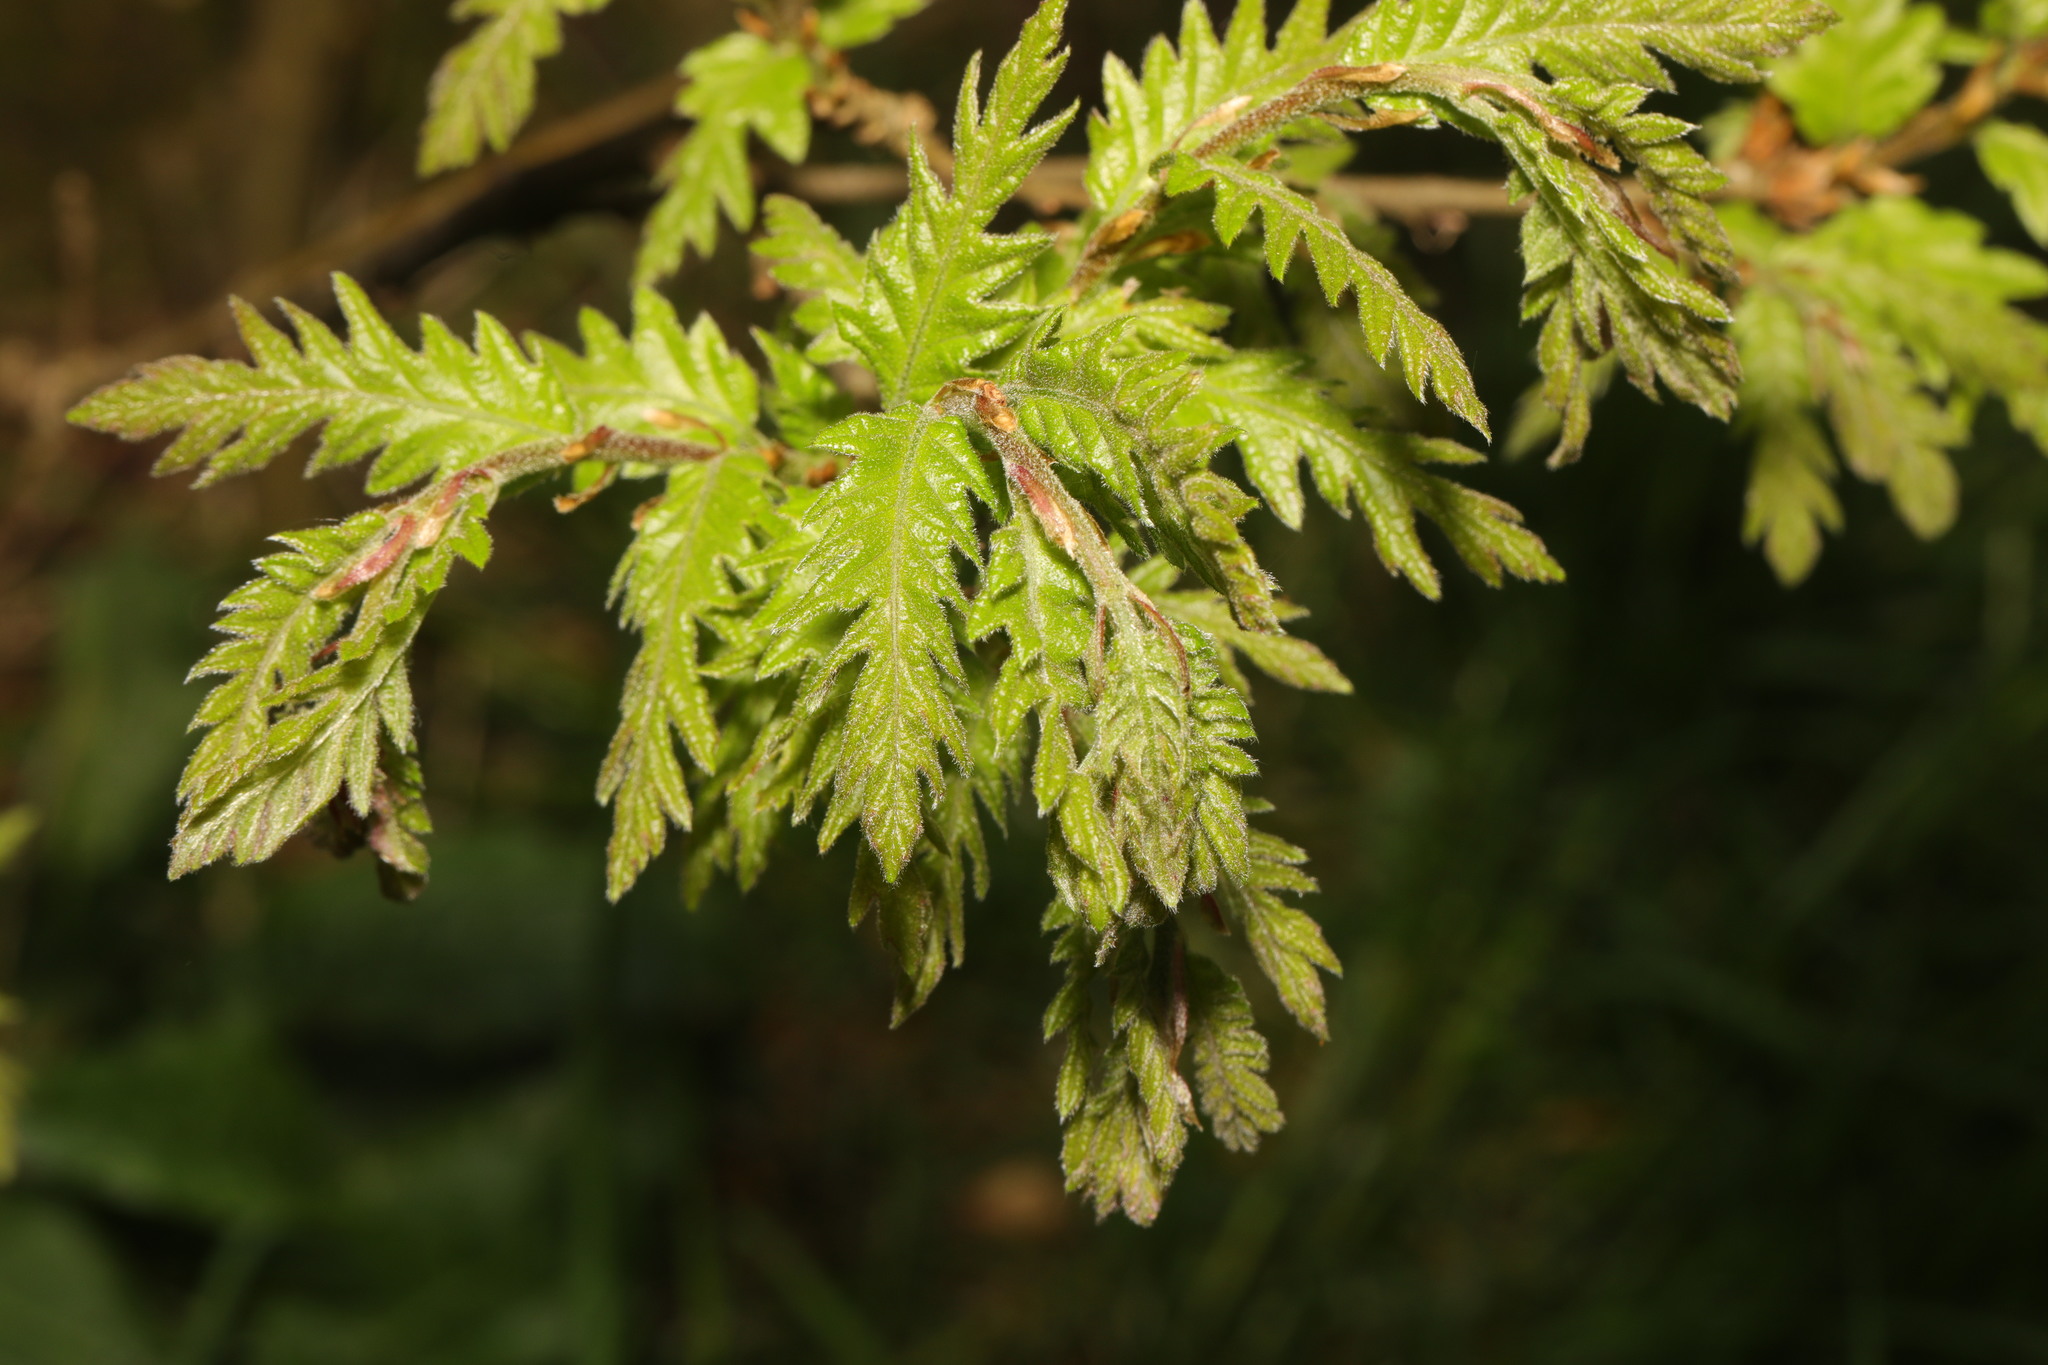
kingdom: Plantae
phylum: Tracheophyta
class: Magnoliopsida
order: Fagales
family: Fagaceae
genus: Quercus
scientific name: Quercus cerris
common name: Turkey oak
